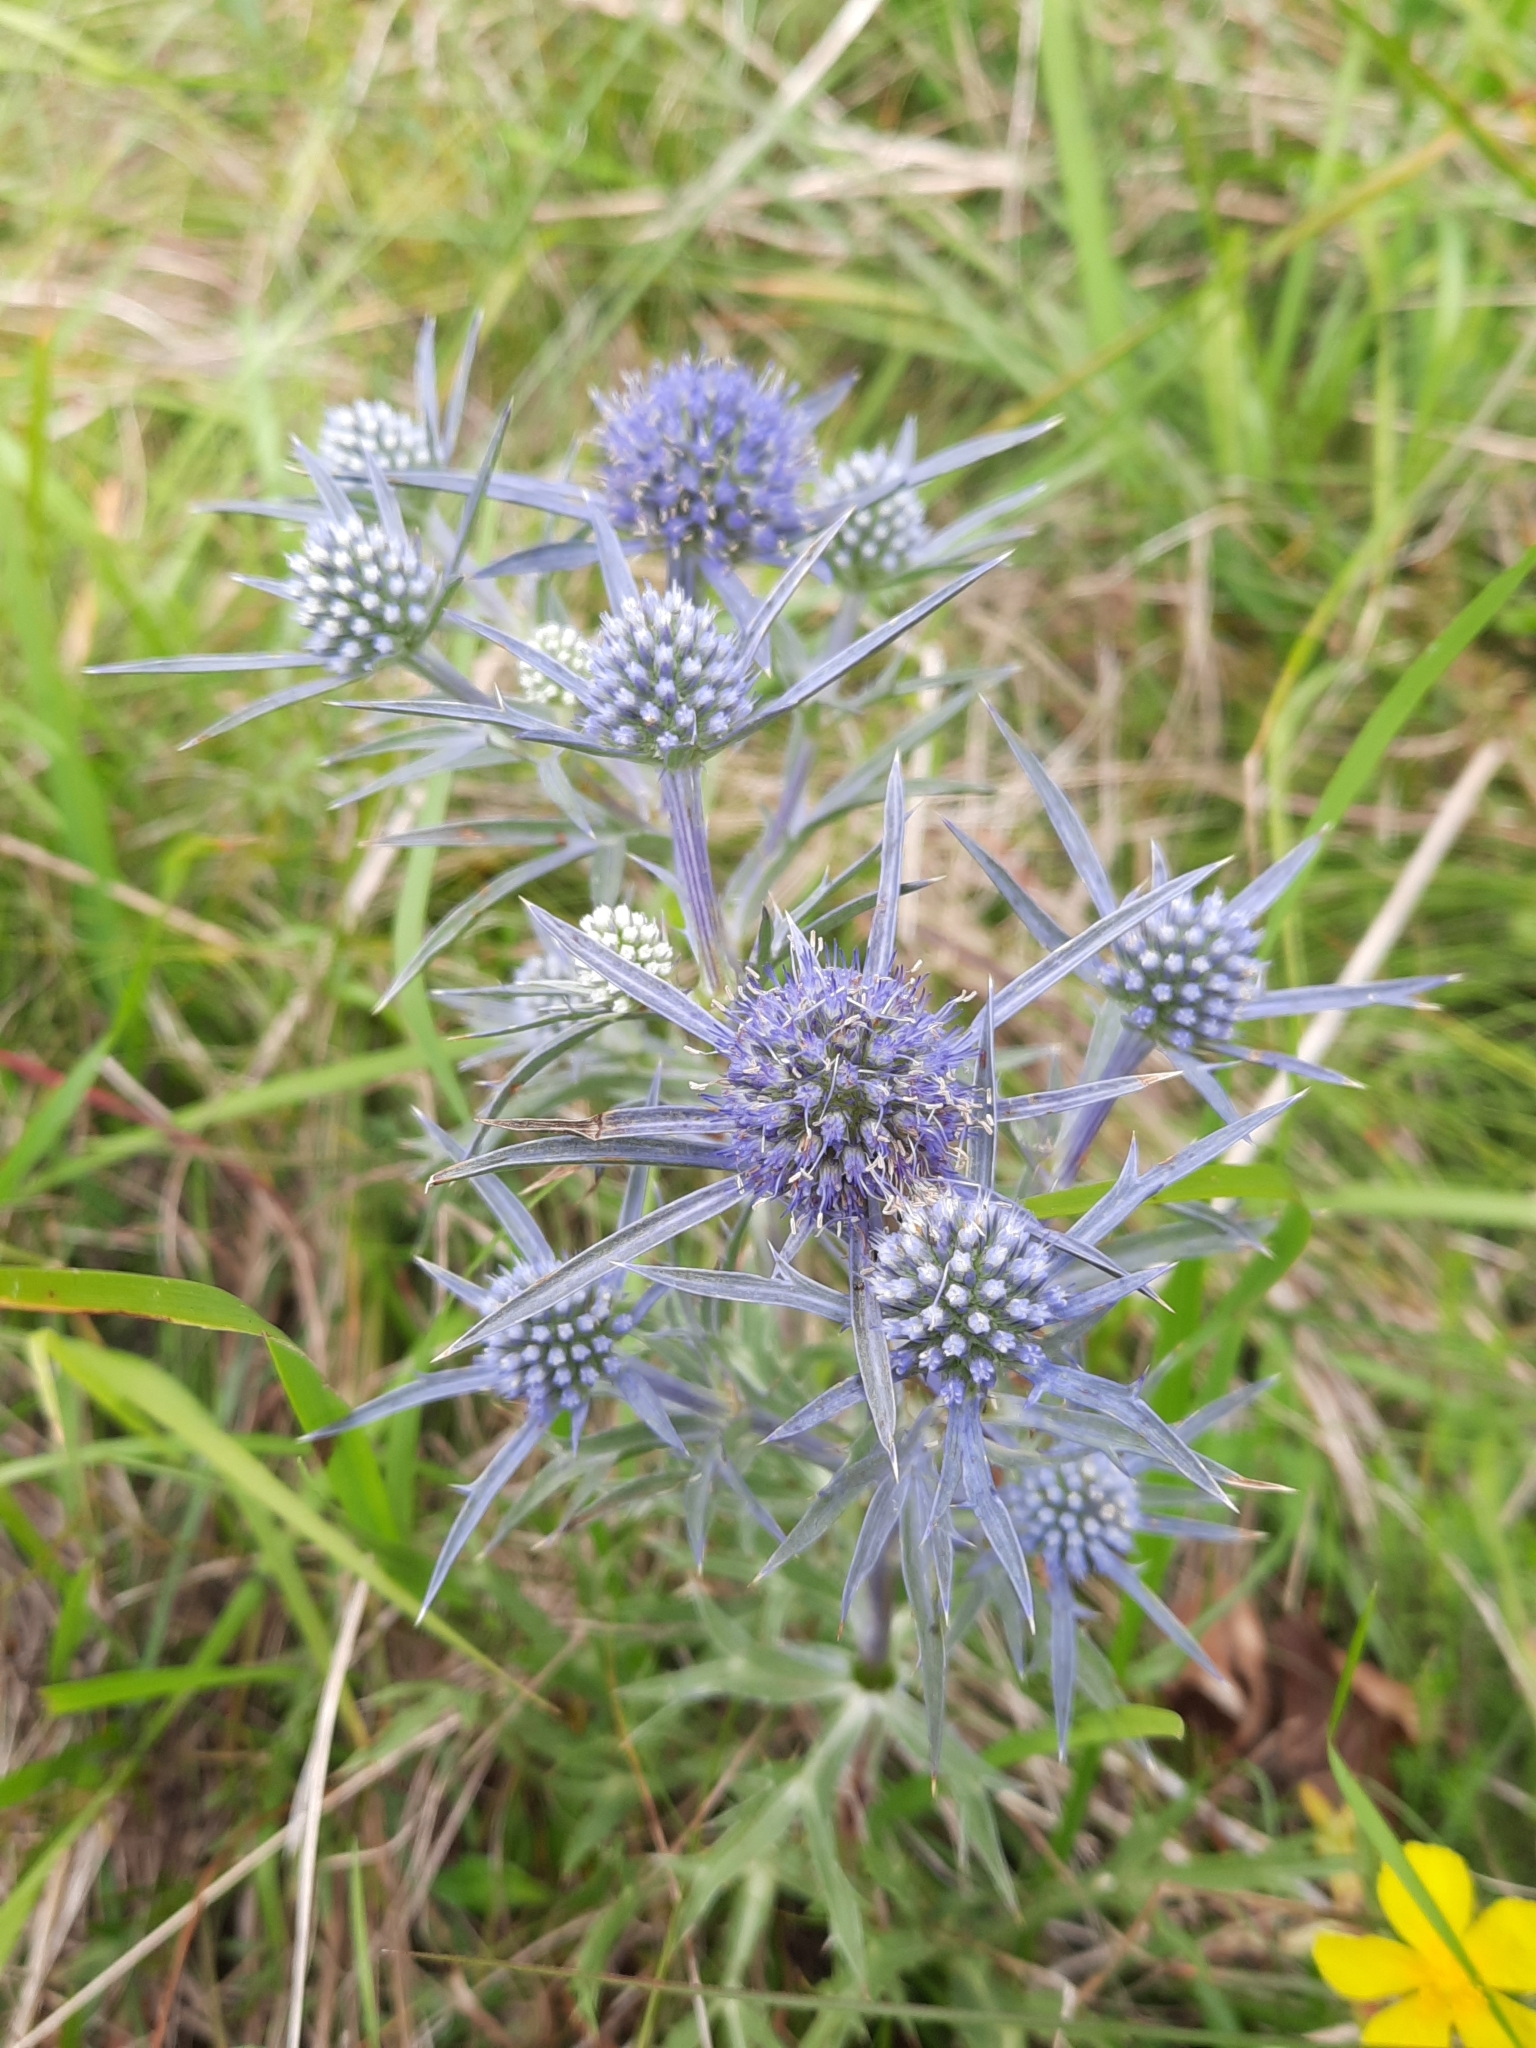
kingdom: Plantae
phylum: Tracheophyta
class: Magnoliopsida
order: Apiales
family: Apiaceae
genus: Eryngium
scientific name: Eryngium amethystinum
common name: Amethyst eryngo
